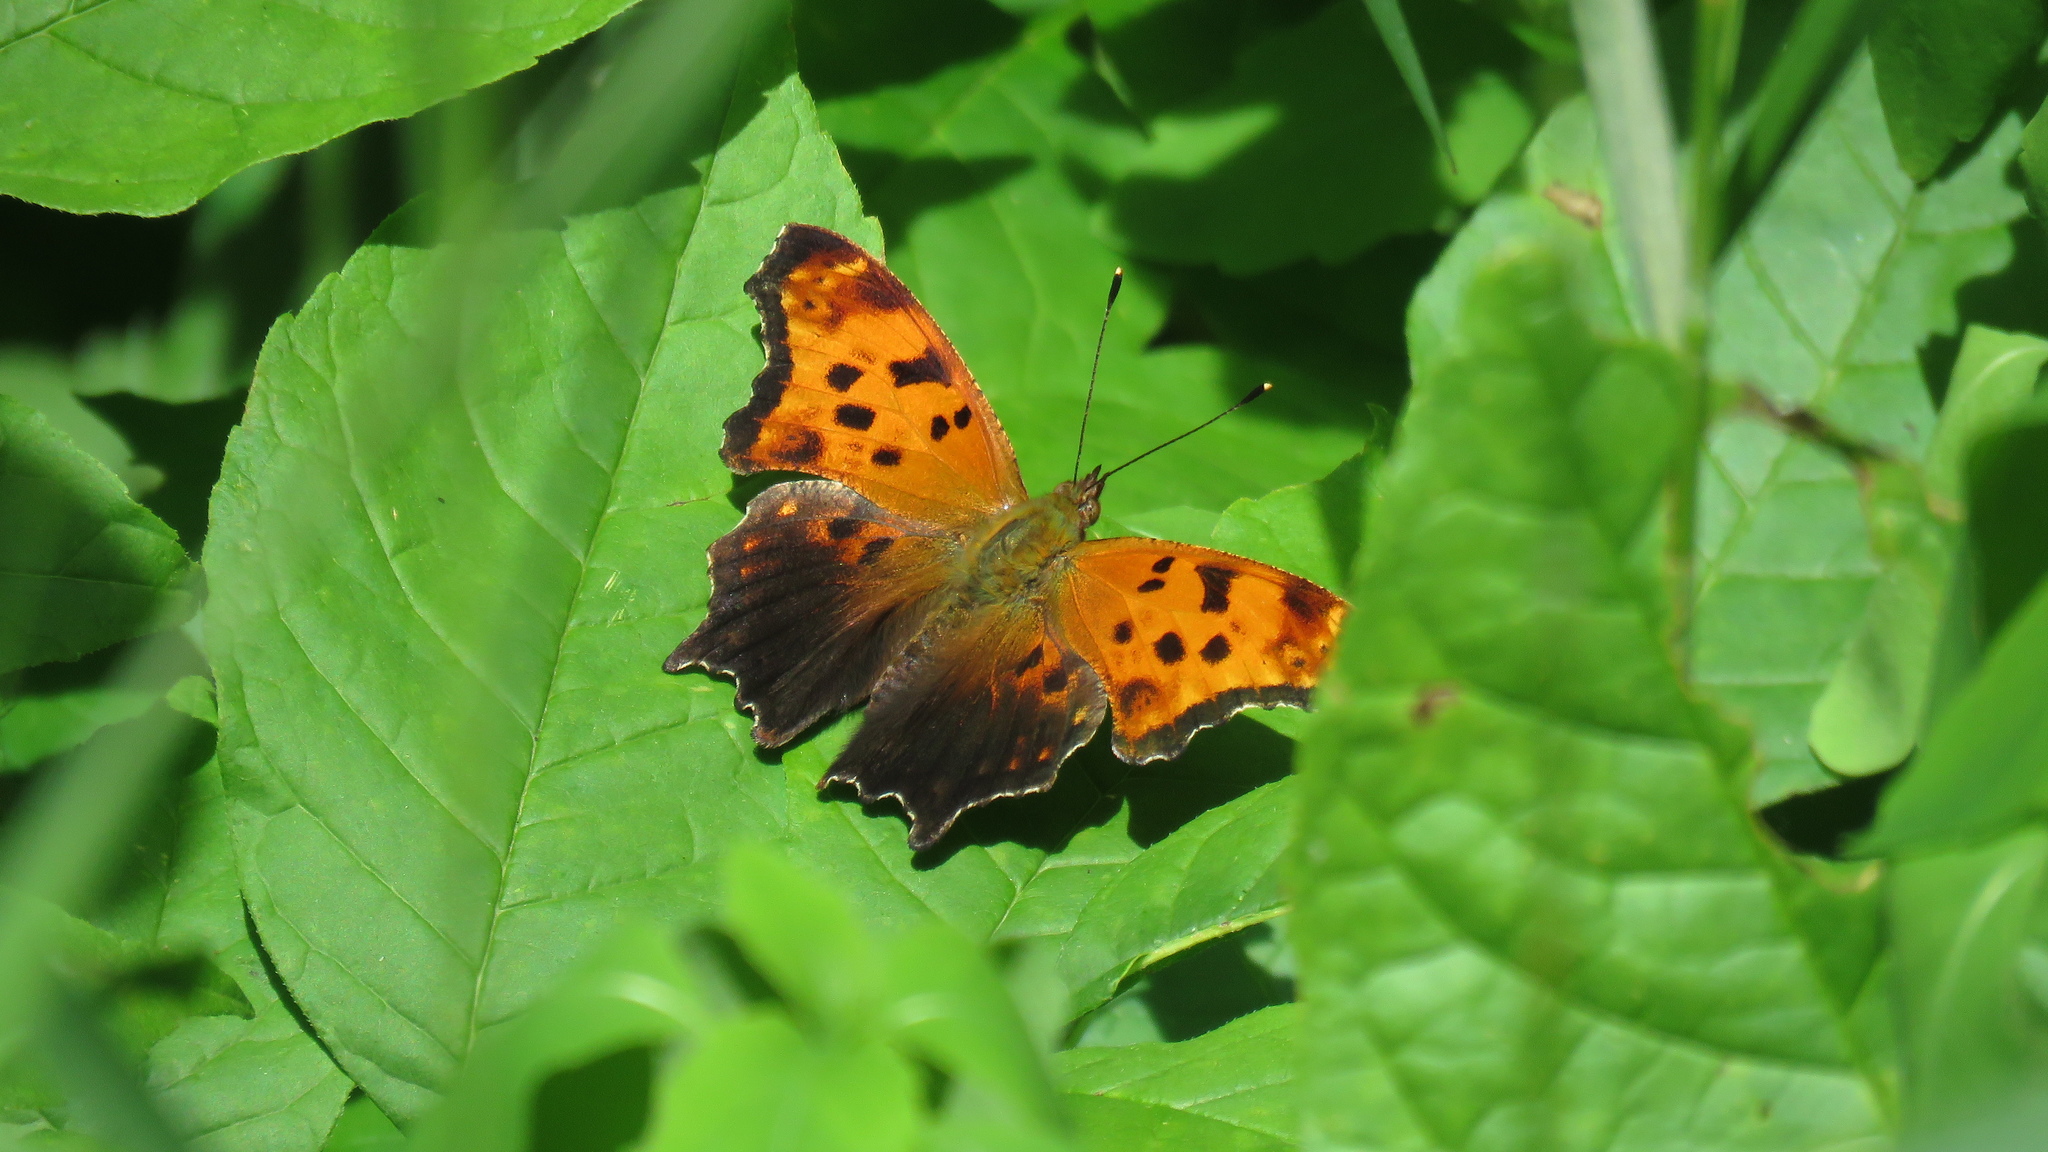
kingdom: Animalia
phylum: Arthropoda
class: Insecta
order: Lepidoptera
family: Nymphalidae
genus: Polygonia
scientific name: Polygonia comma
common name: Eastern comma
